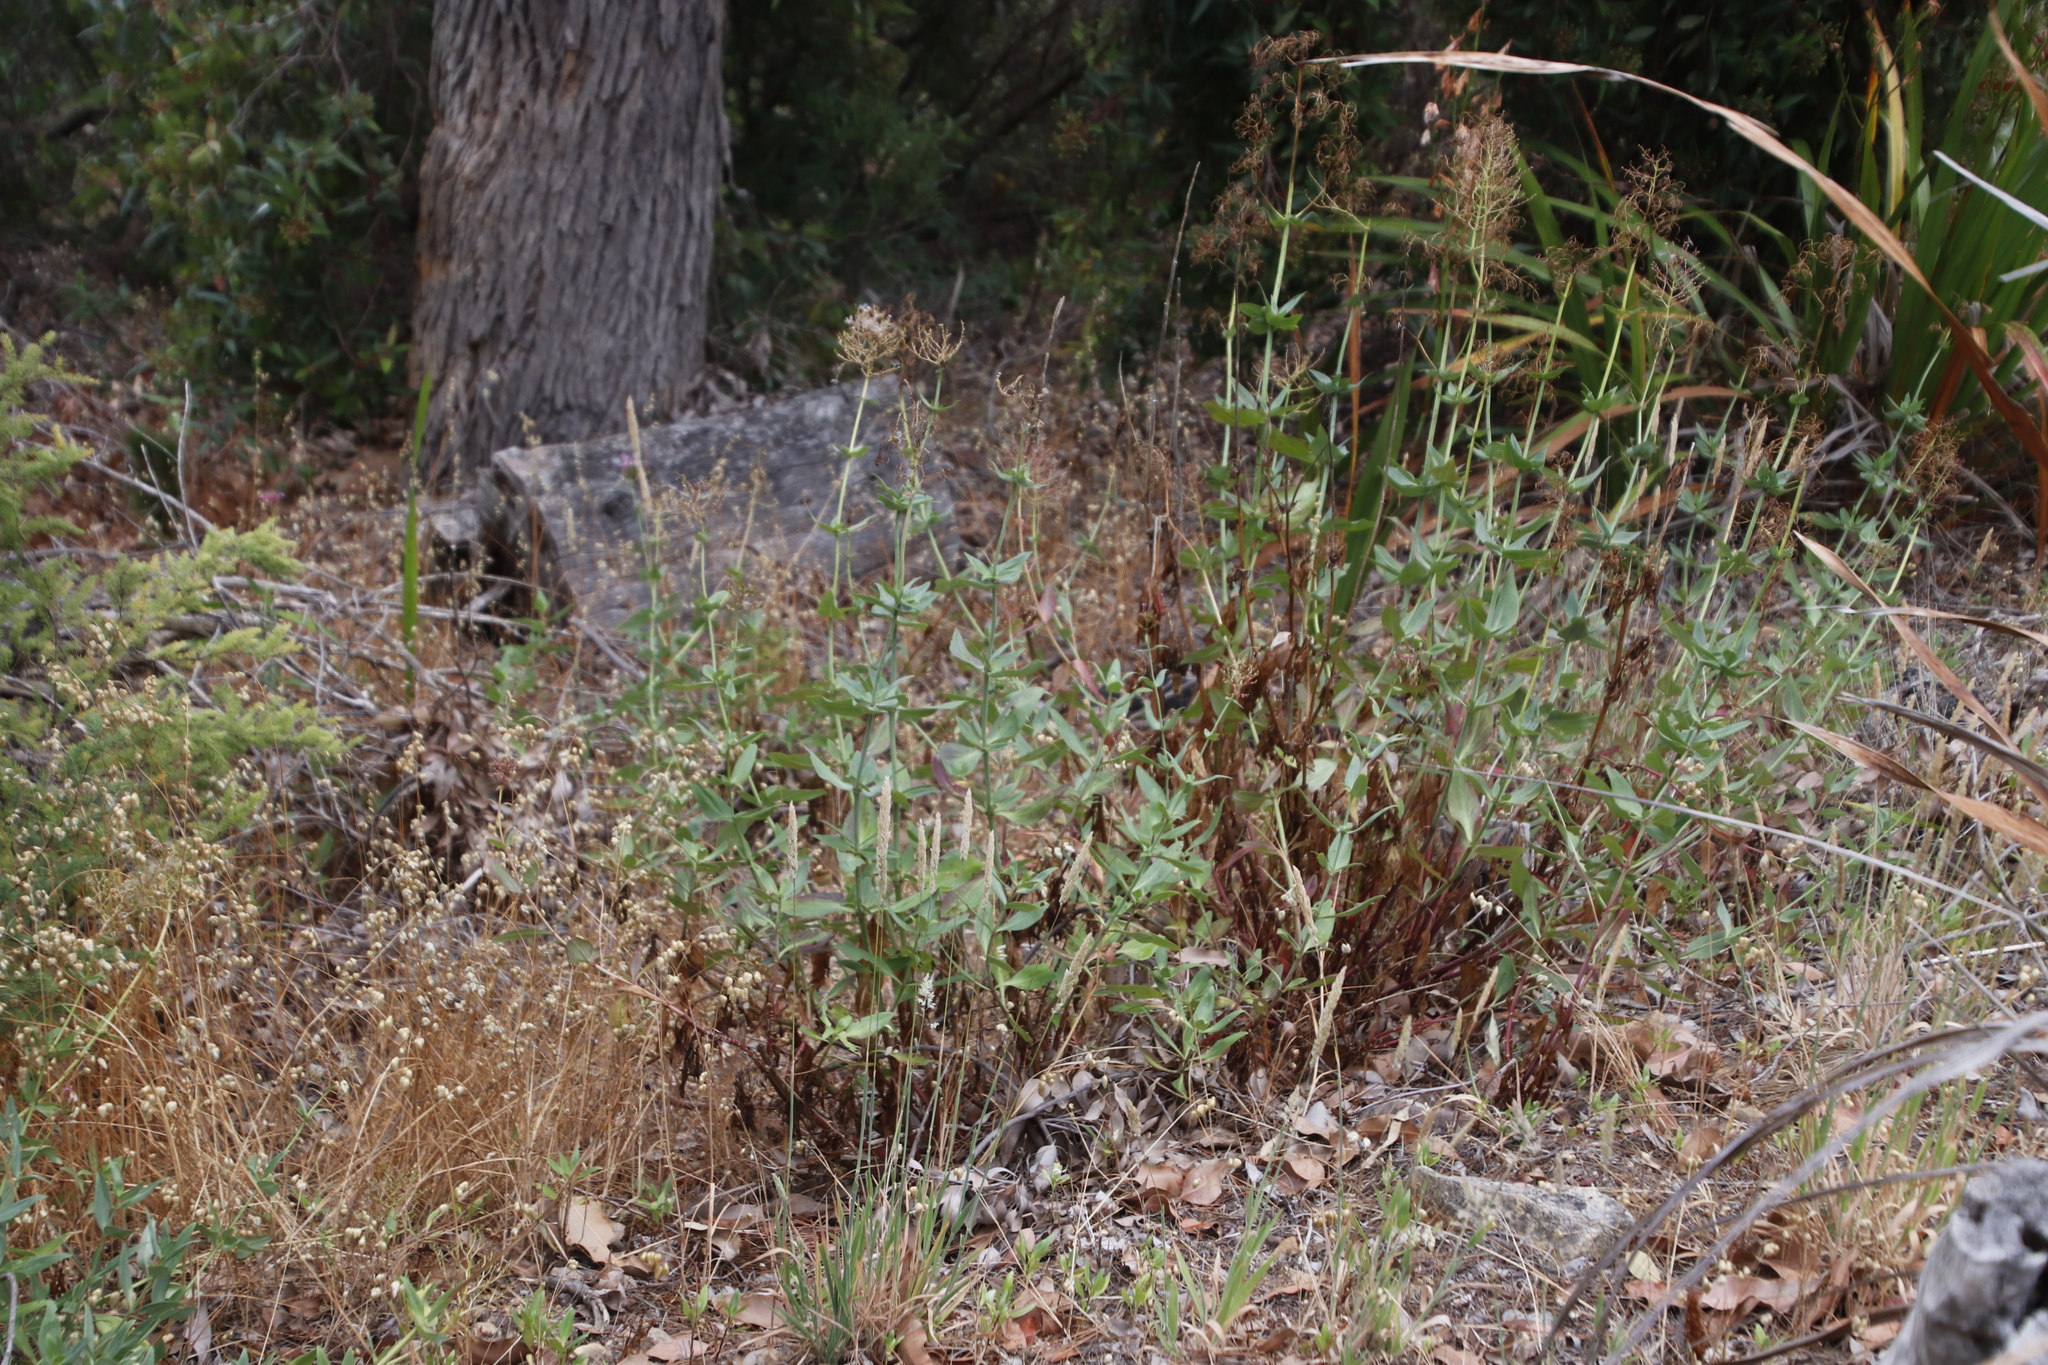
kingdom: Plantae
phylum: Tracheophyta
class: Magnoliopsida
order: Dipsacales
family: Caprifoliaceae
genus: Centranthus
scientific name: Centranthus ruber
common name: Red valerian
